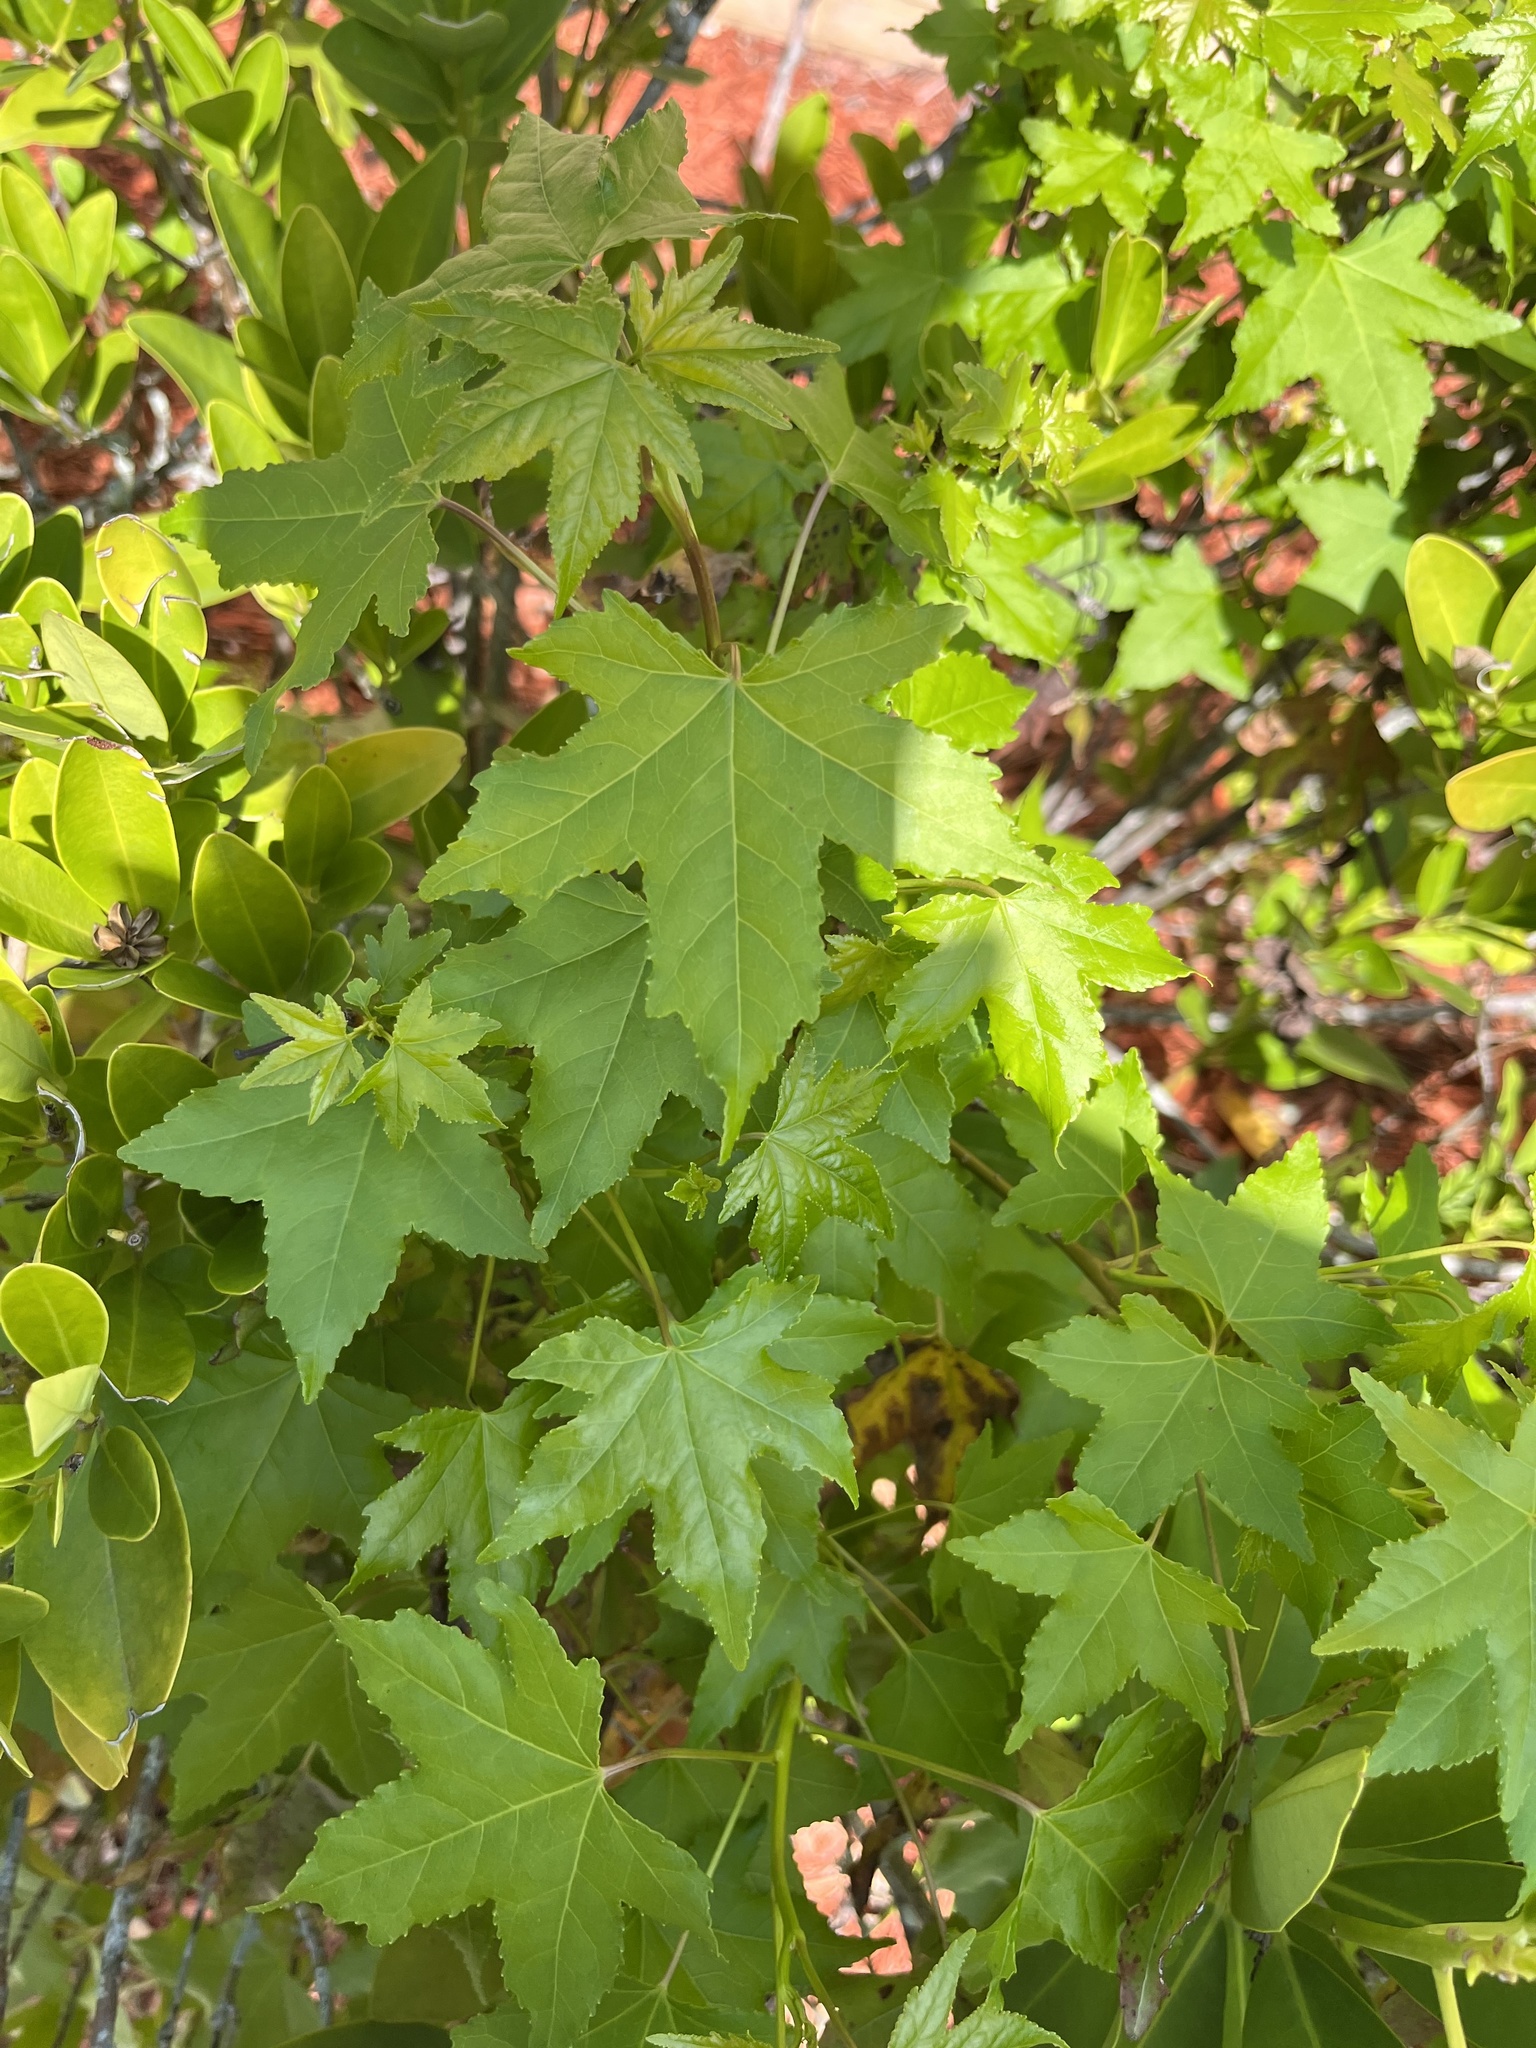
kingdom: Plantae
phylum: Tracheophyta
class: Magnoliopsida
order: Saxifragales
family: Altingiaceae
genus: Liquidambar
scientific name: Liquidambar styraciflua
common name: Sweet gum
